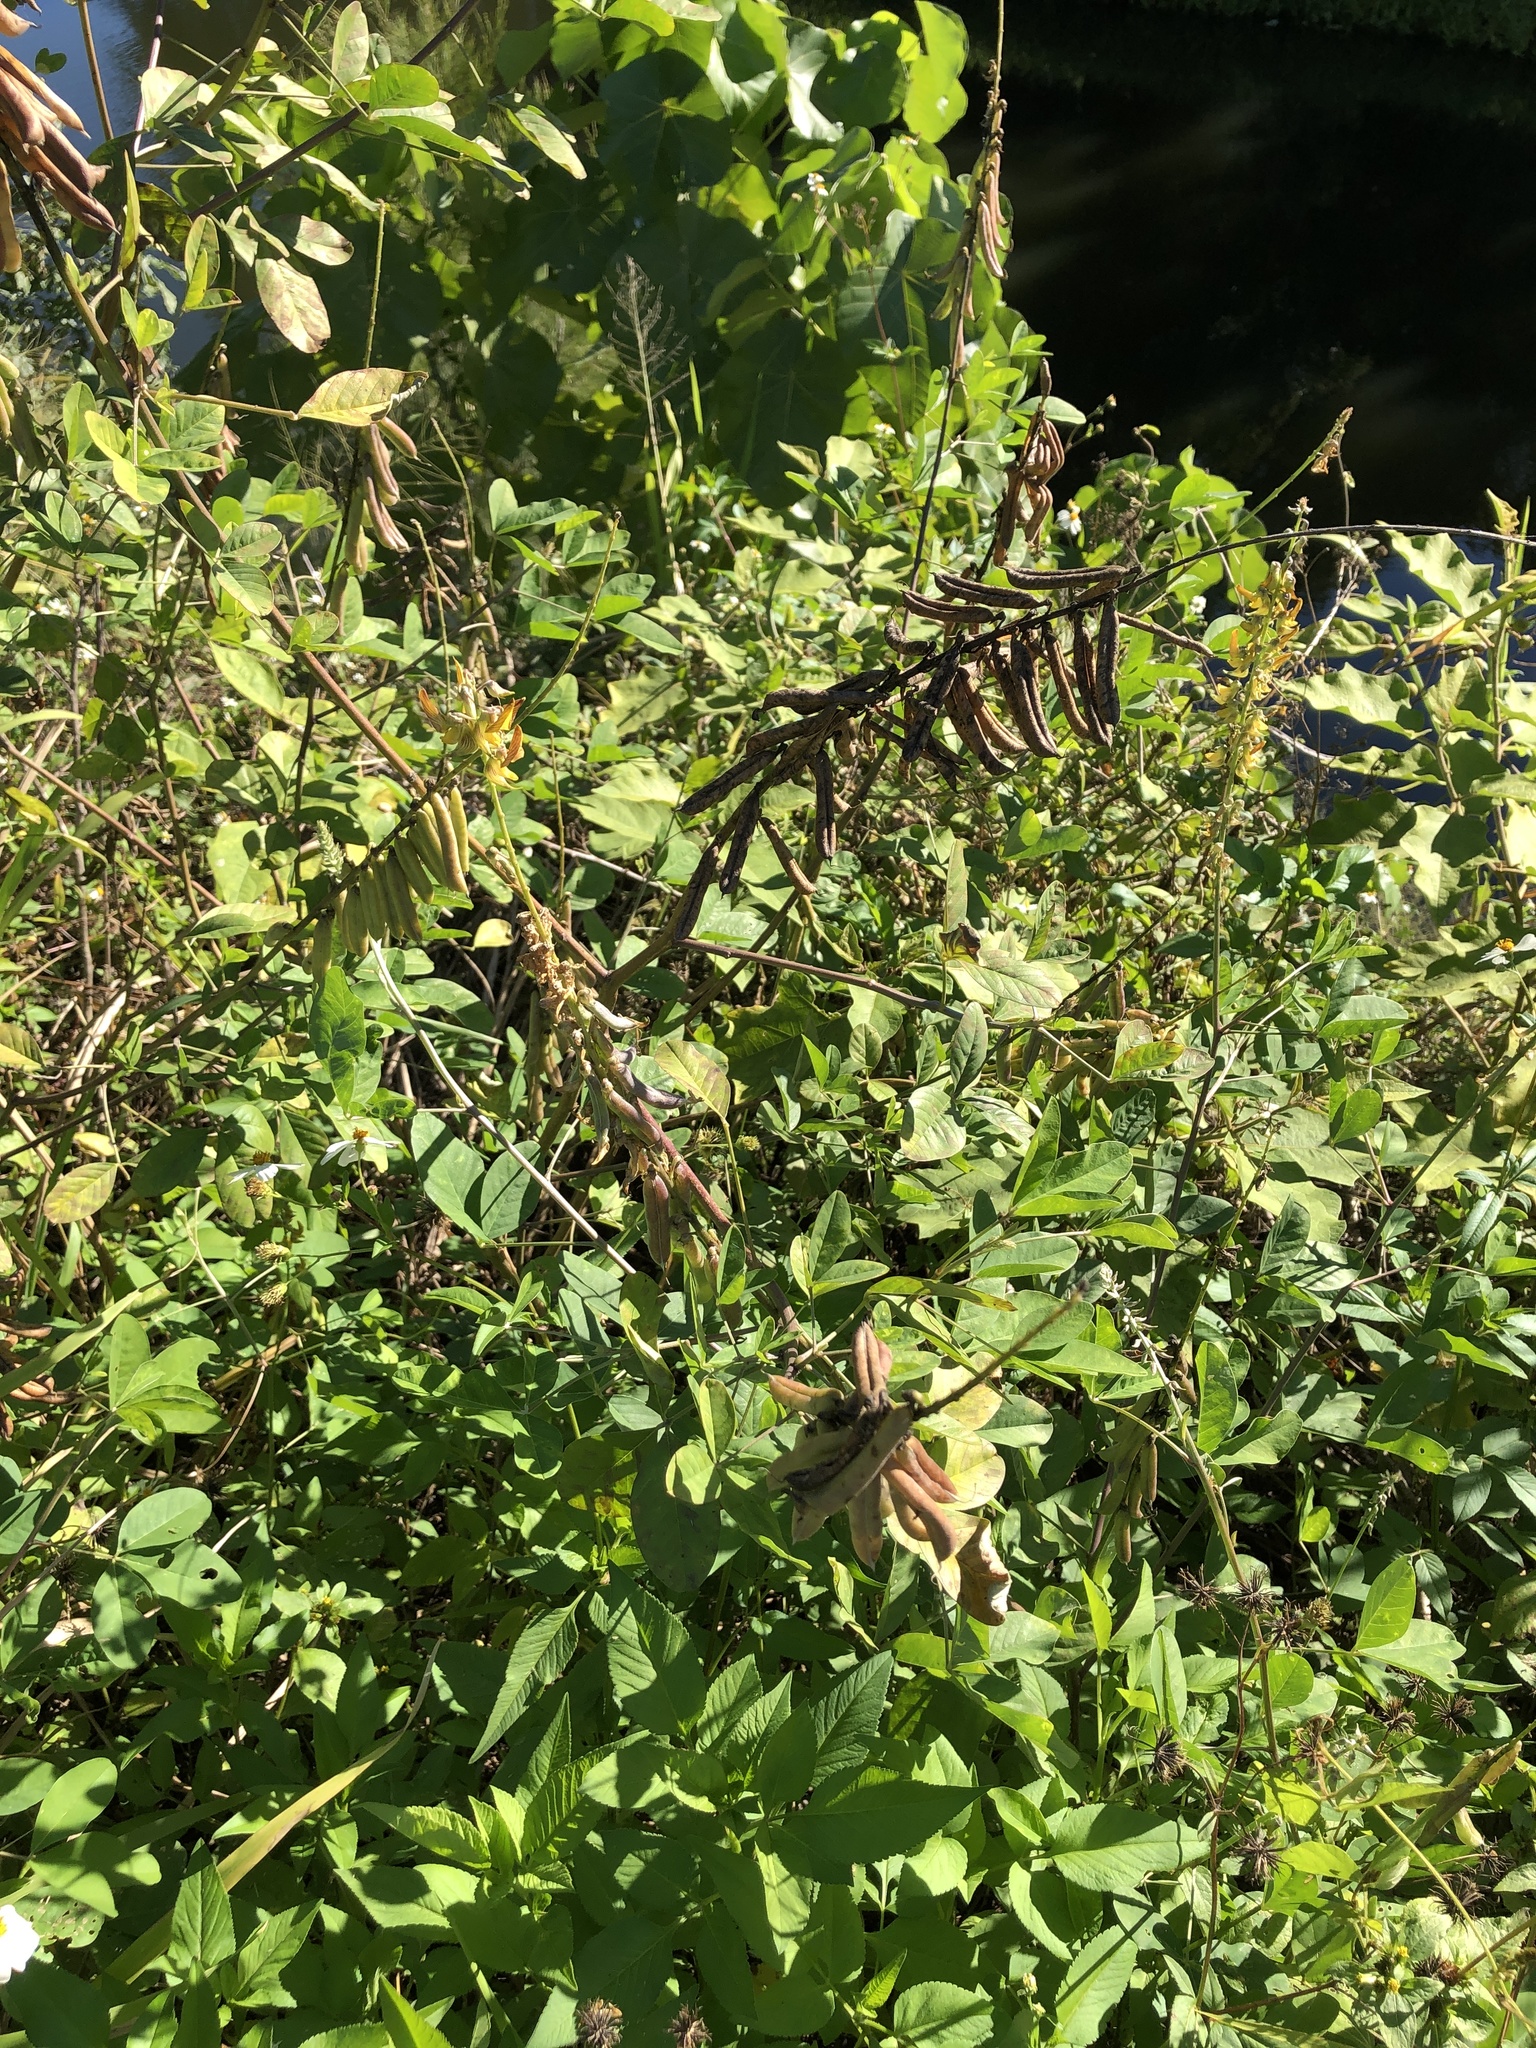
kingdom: Plantae
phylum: Tracheophyta
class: Magnoliopsida
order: Fabales
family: Fabaceae
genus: Crotalaria
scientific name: Crotalaria pallida
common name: Smooth rattlebox
